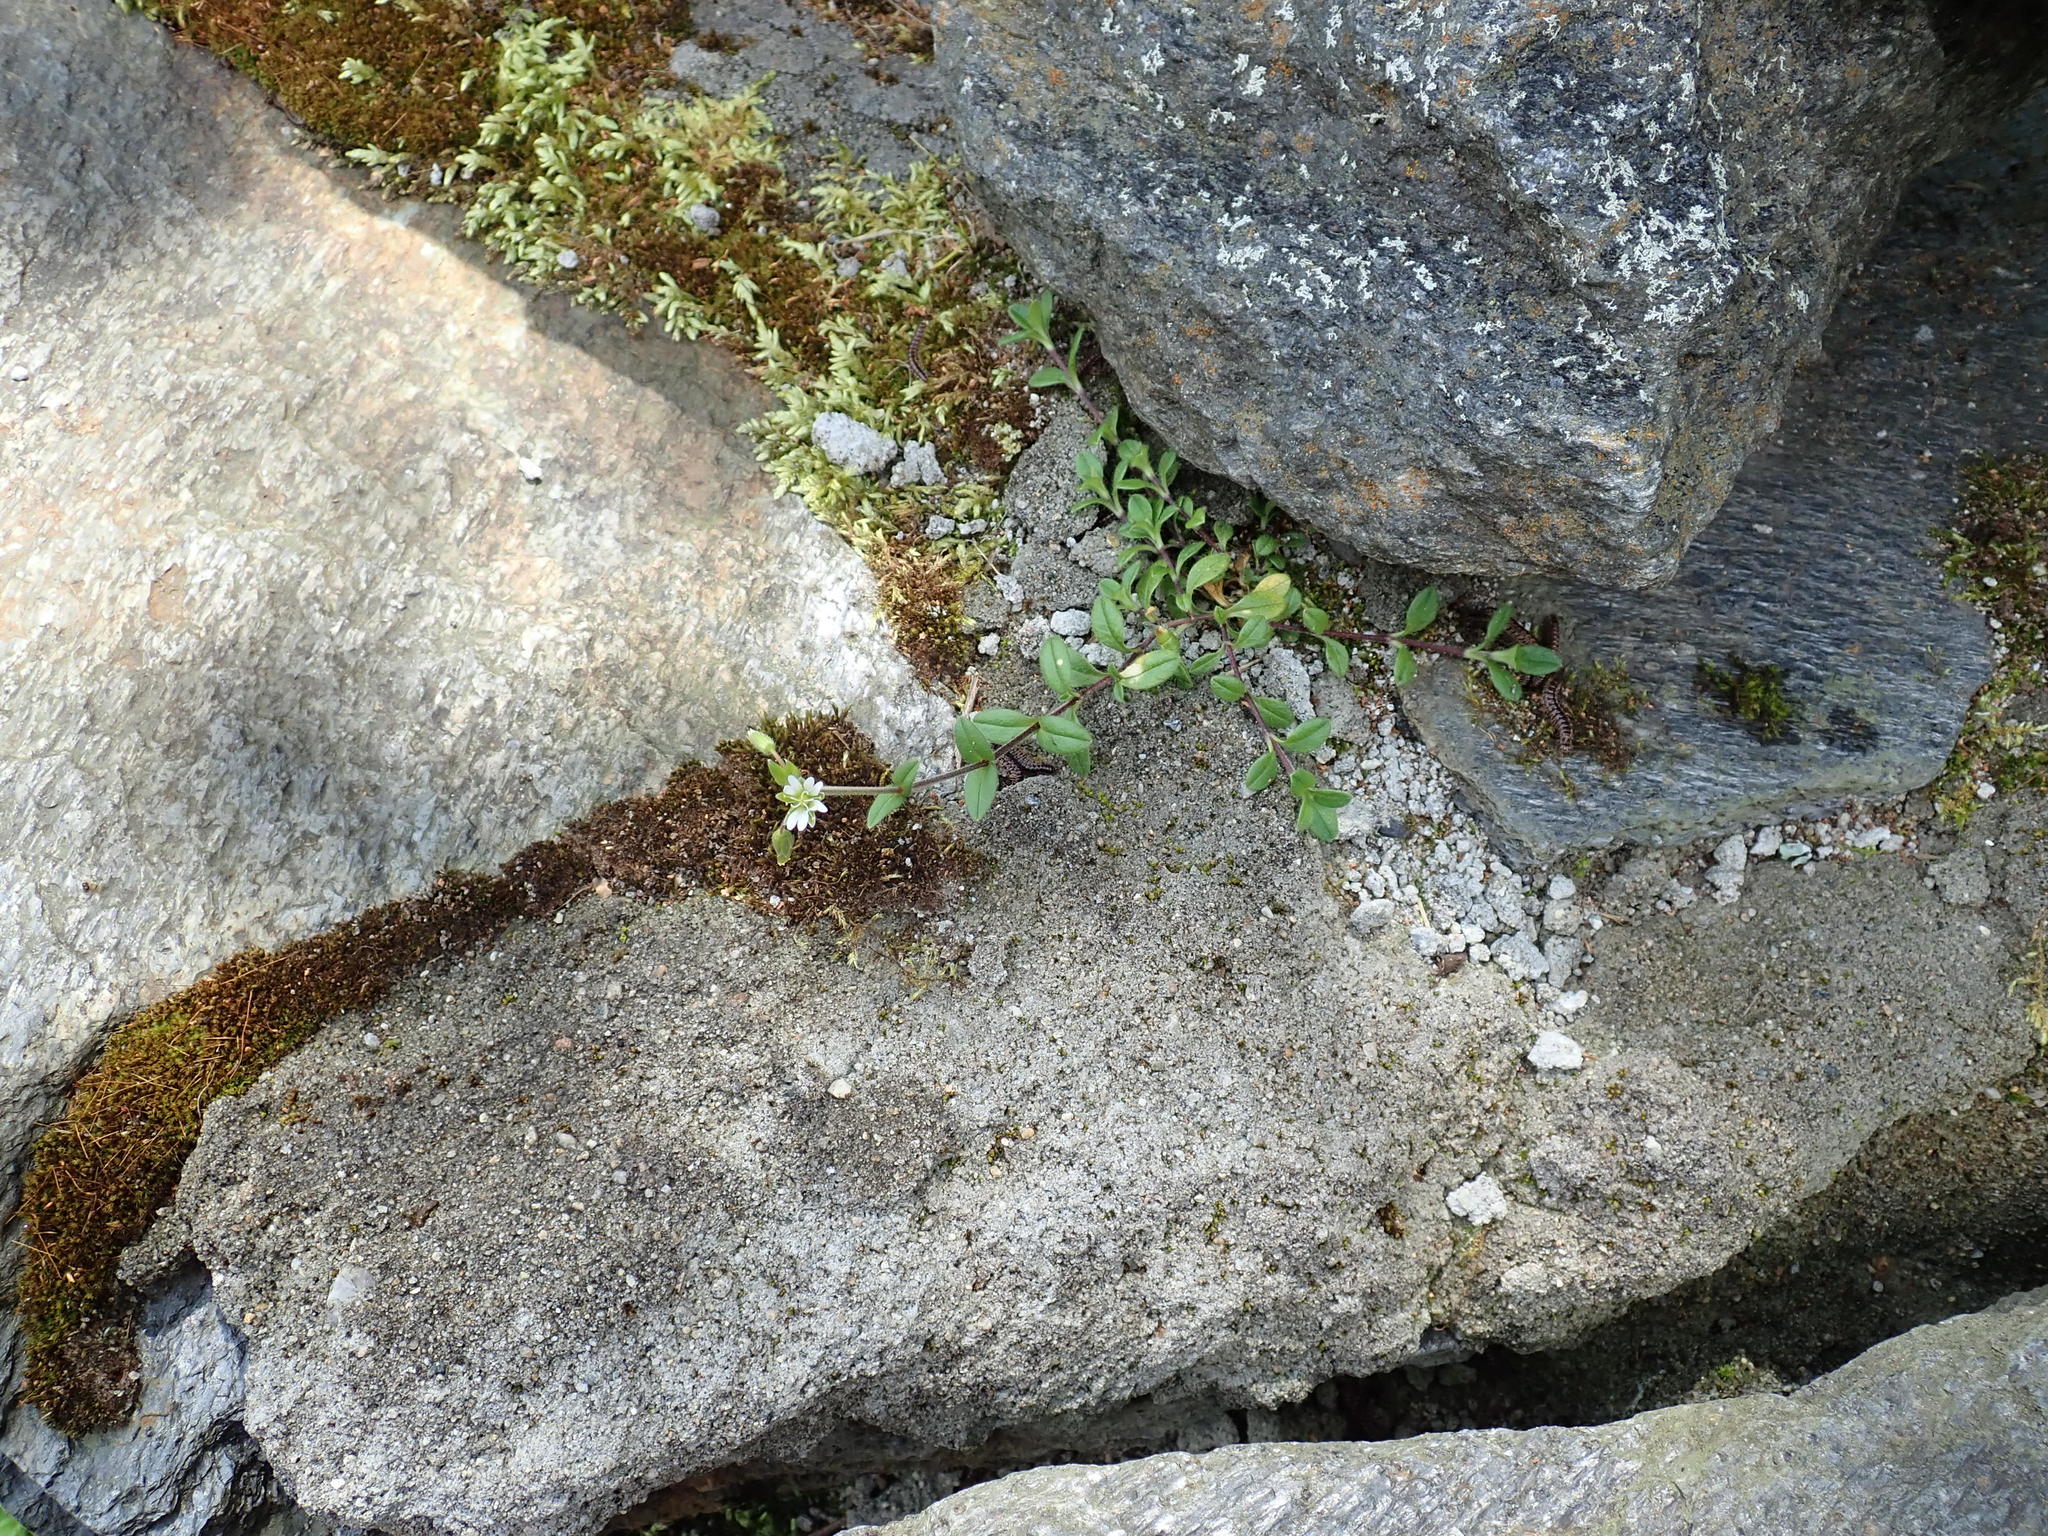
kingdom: Plantae
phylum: Tracheophyta
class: Magnoliopsida
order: Caryophyllales
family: Caryophyllaceae
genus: Cerastium
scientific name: Cerastium fontanum
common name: Common mouse-ear
